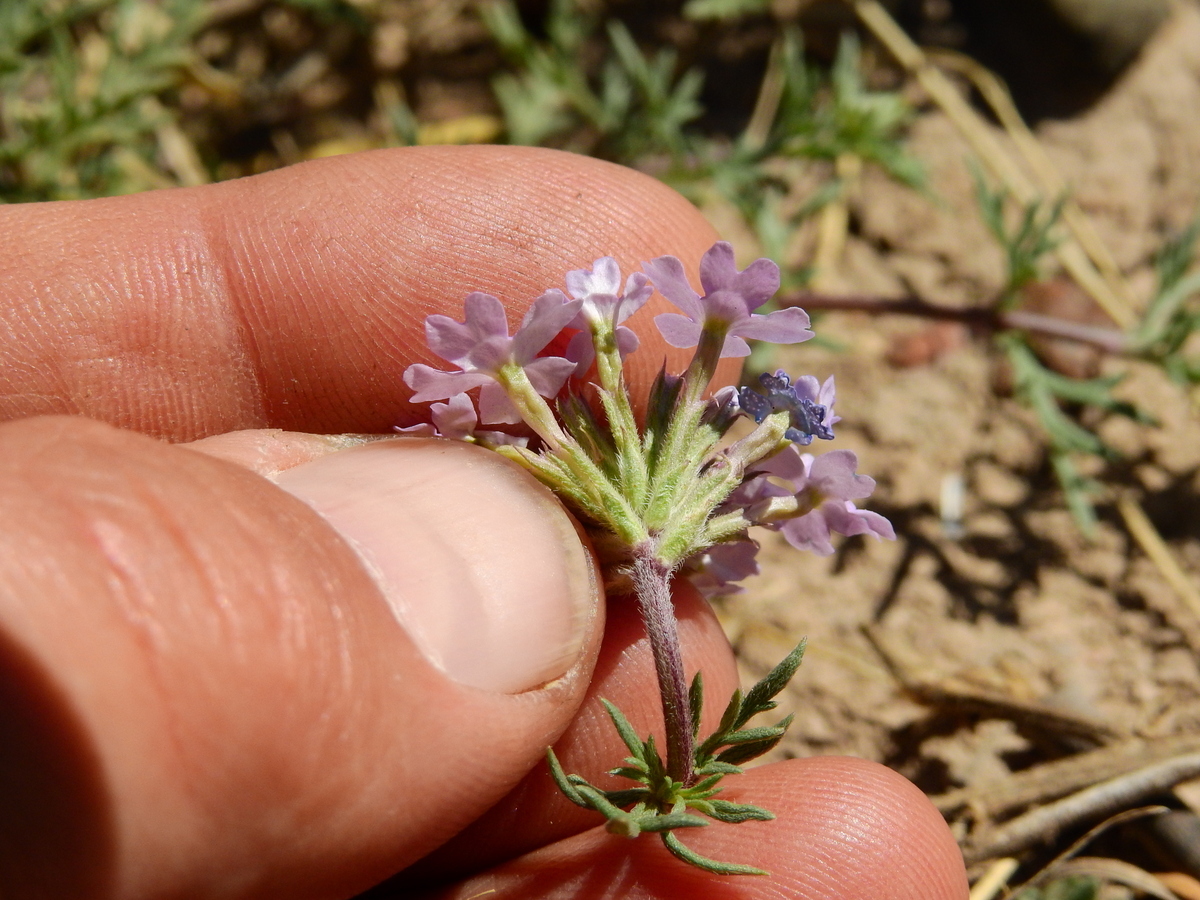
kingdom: Plantae
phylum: Tracheophyta
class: Magnoliopsida
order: Lamiales
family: Verbenaceae
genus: Verbena
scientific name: Verbena mendocina
